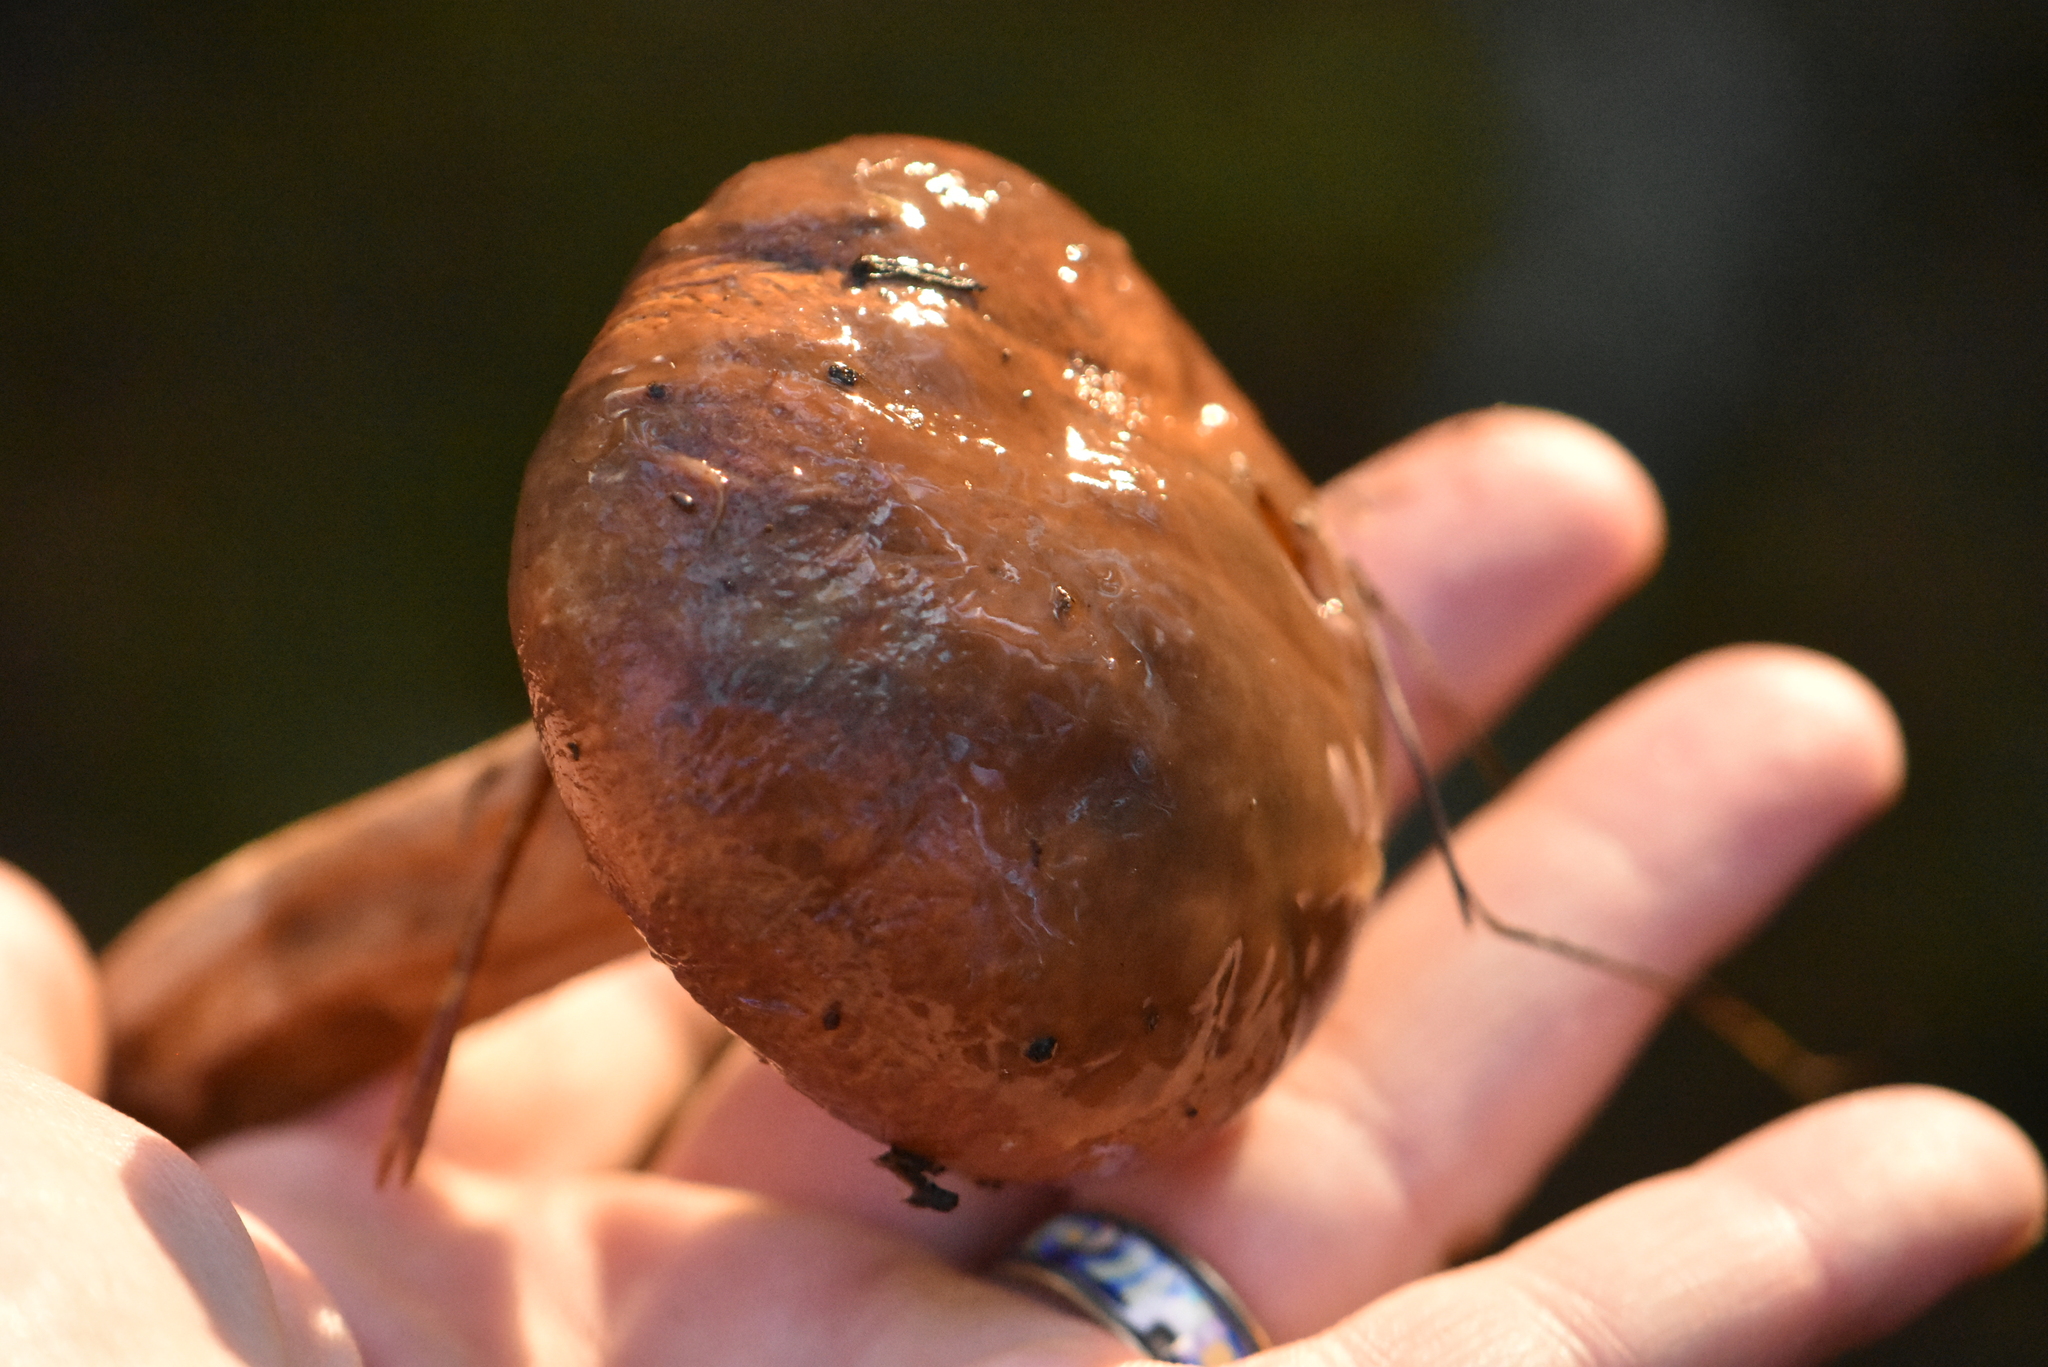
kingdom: Fungi
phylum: Basidiomycota
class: Agaricomycetes
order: Boletales
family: Suillaceae
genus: Suillus
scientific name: Suillus luteus
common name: Slippery jack
